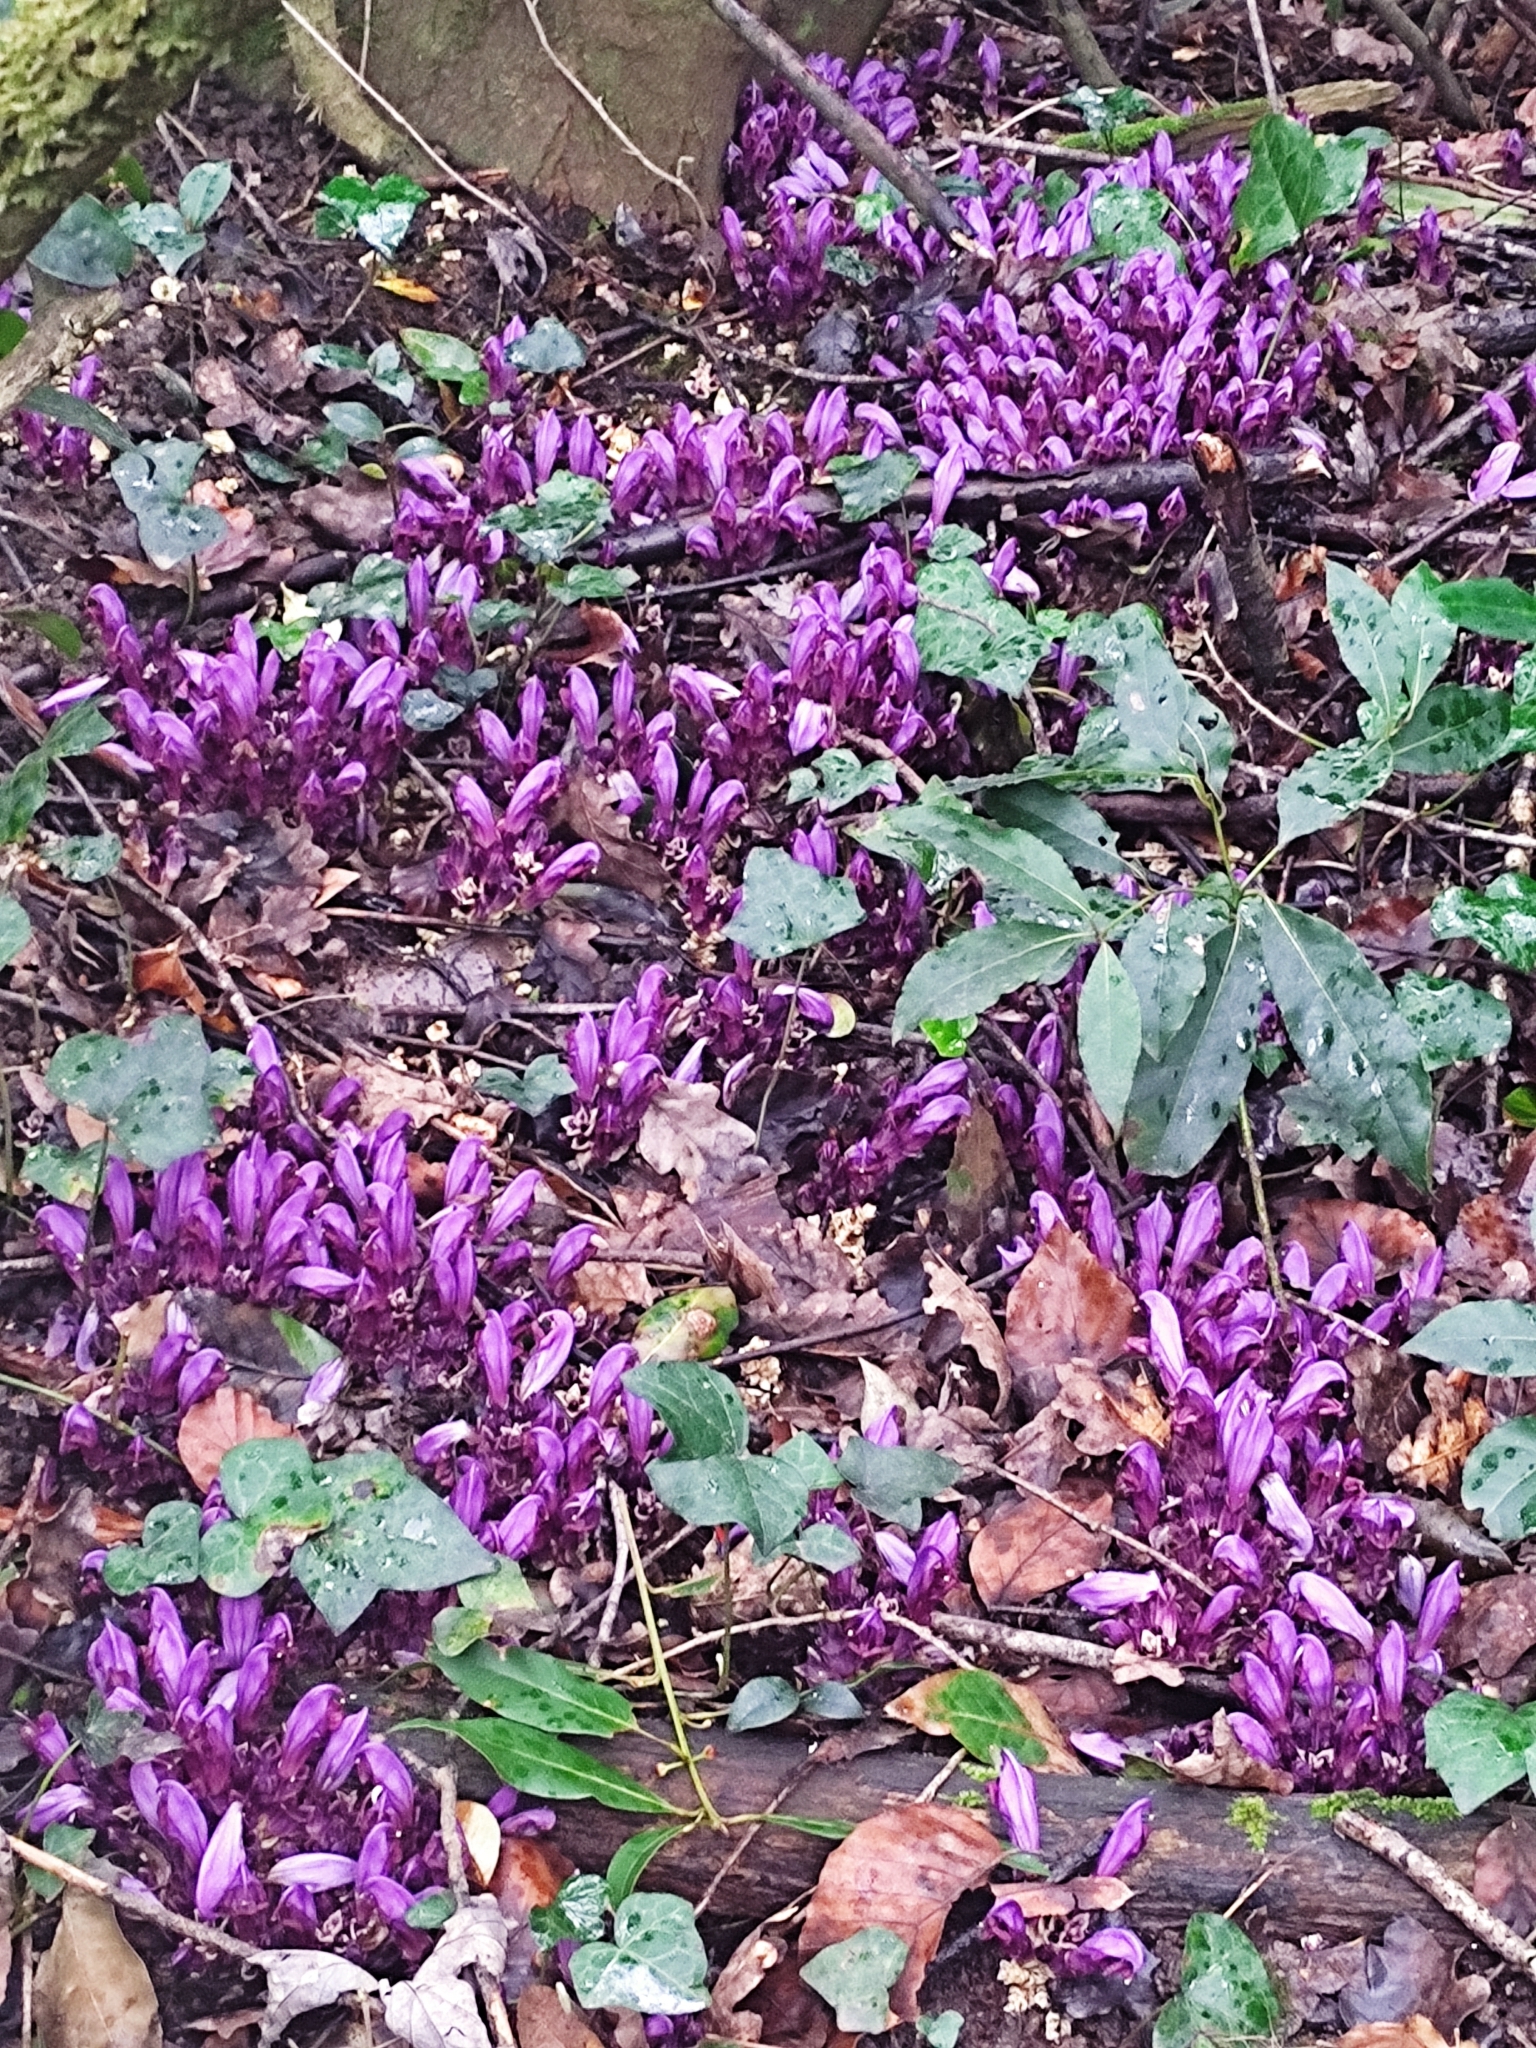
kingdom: Plantae
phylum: Tracheophyta
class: Magnoliopsida
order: Lamiales
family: Orobanchaceae
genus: Lathraea
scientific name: Lathraea clandestina
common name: Purple toothwort
